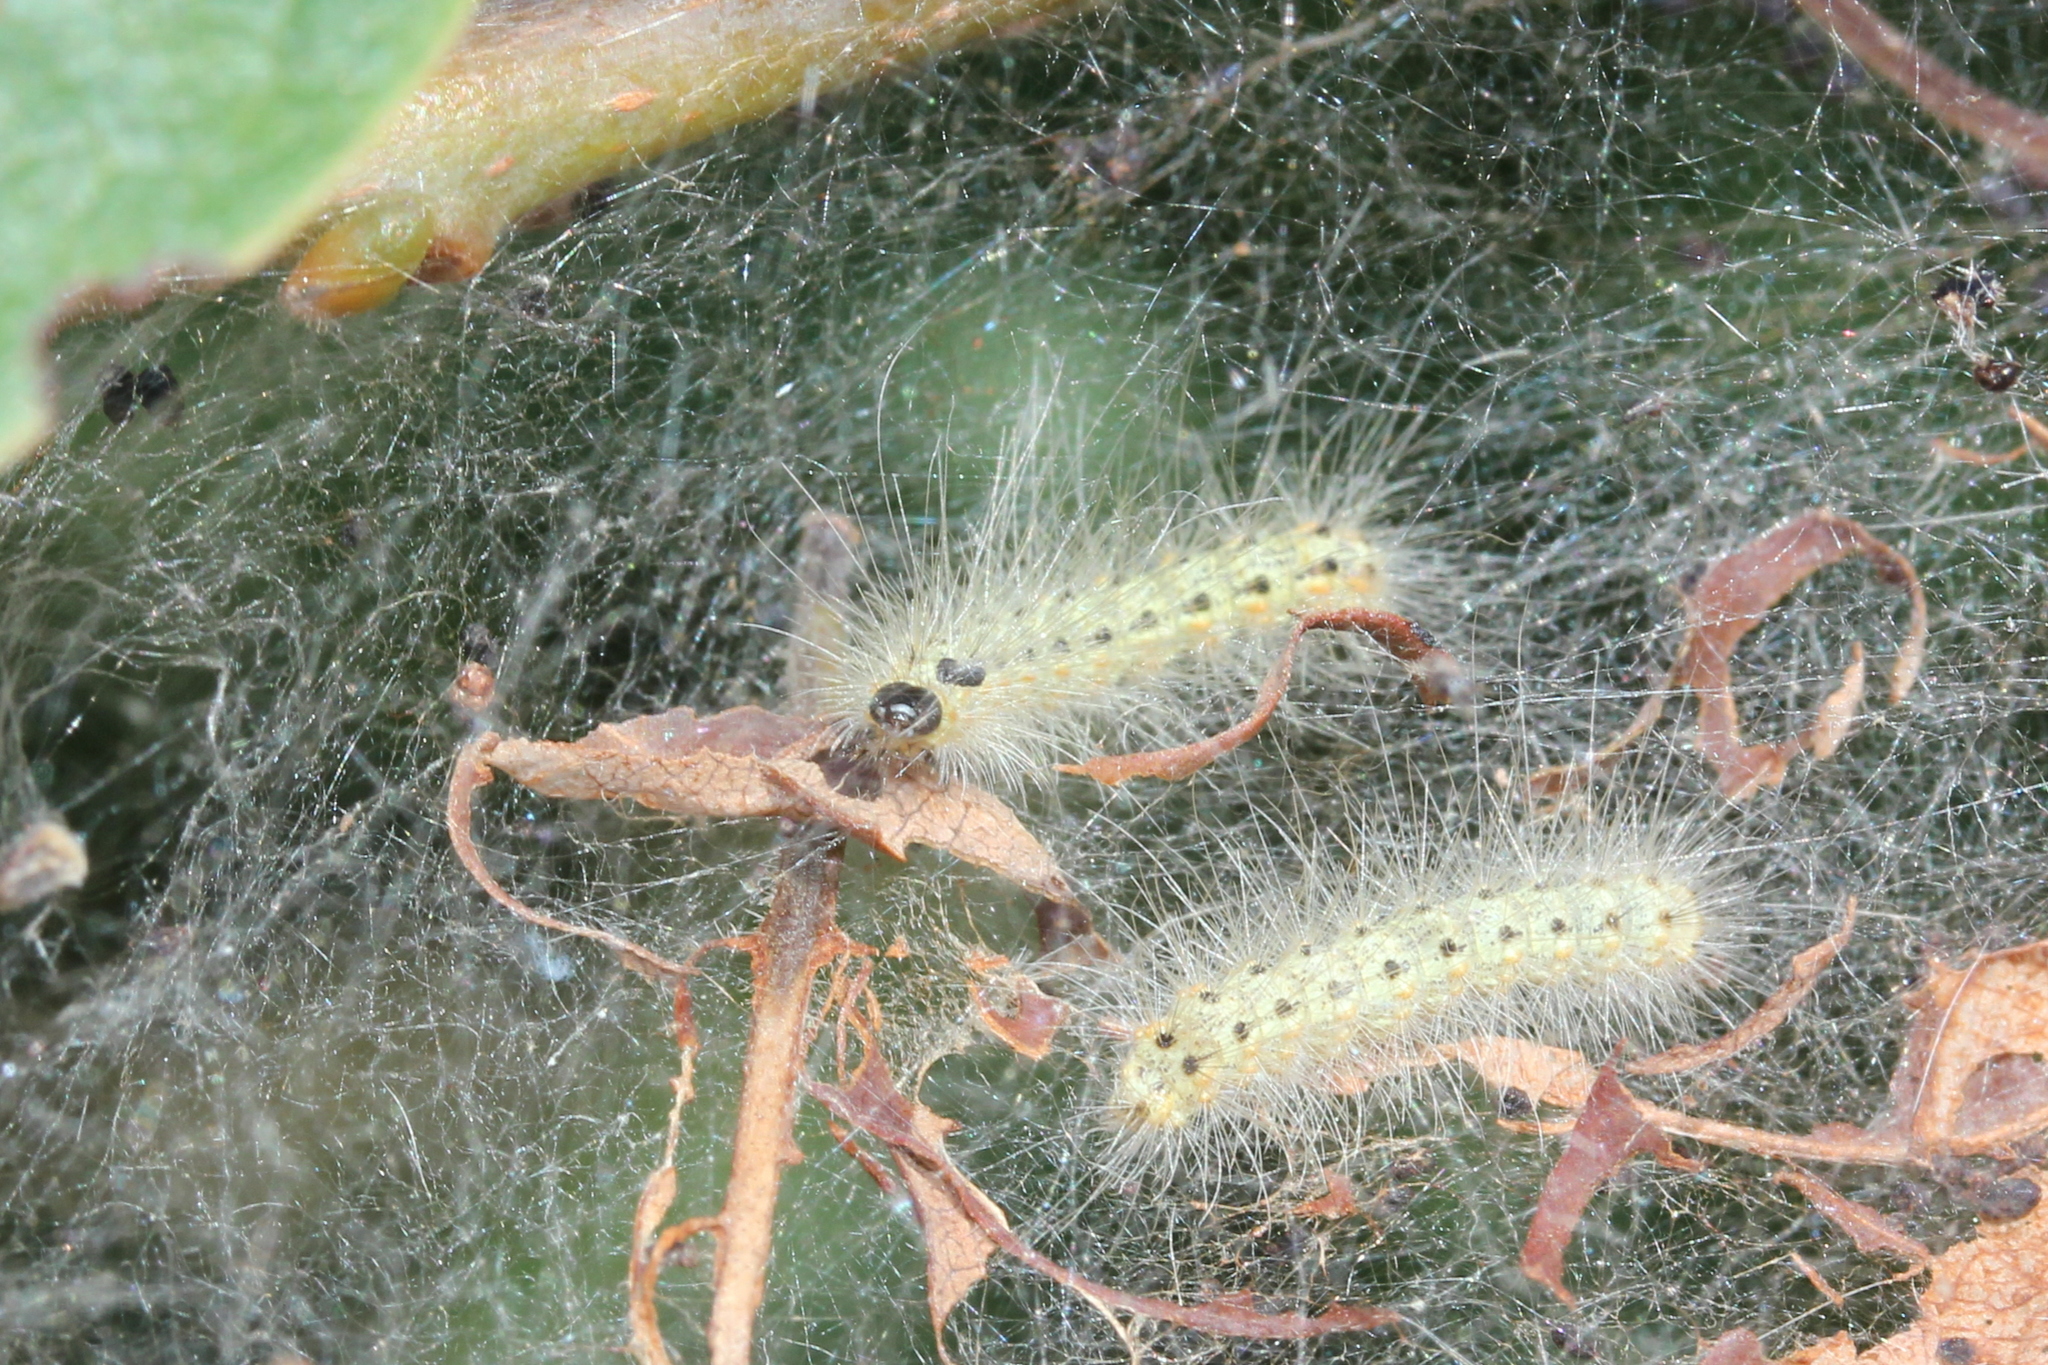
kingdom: Animalia
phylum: Arthropoda
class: Insecta
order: Lepidoptera
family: Erebidae
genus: Hyphantria
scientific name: Hyphantria cunea
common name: American white moth
